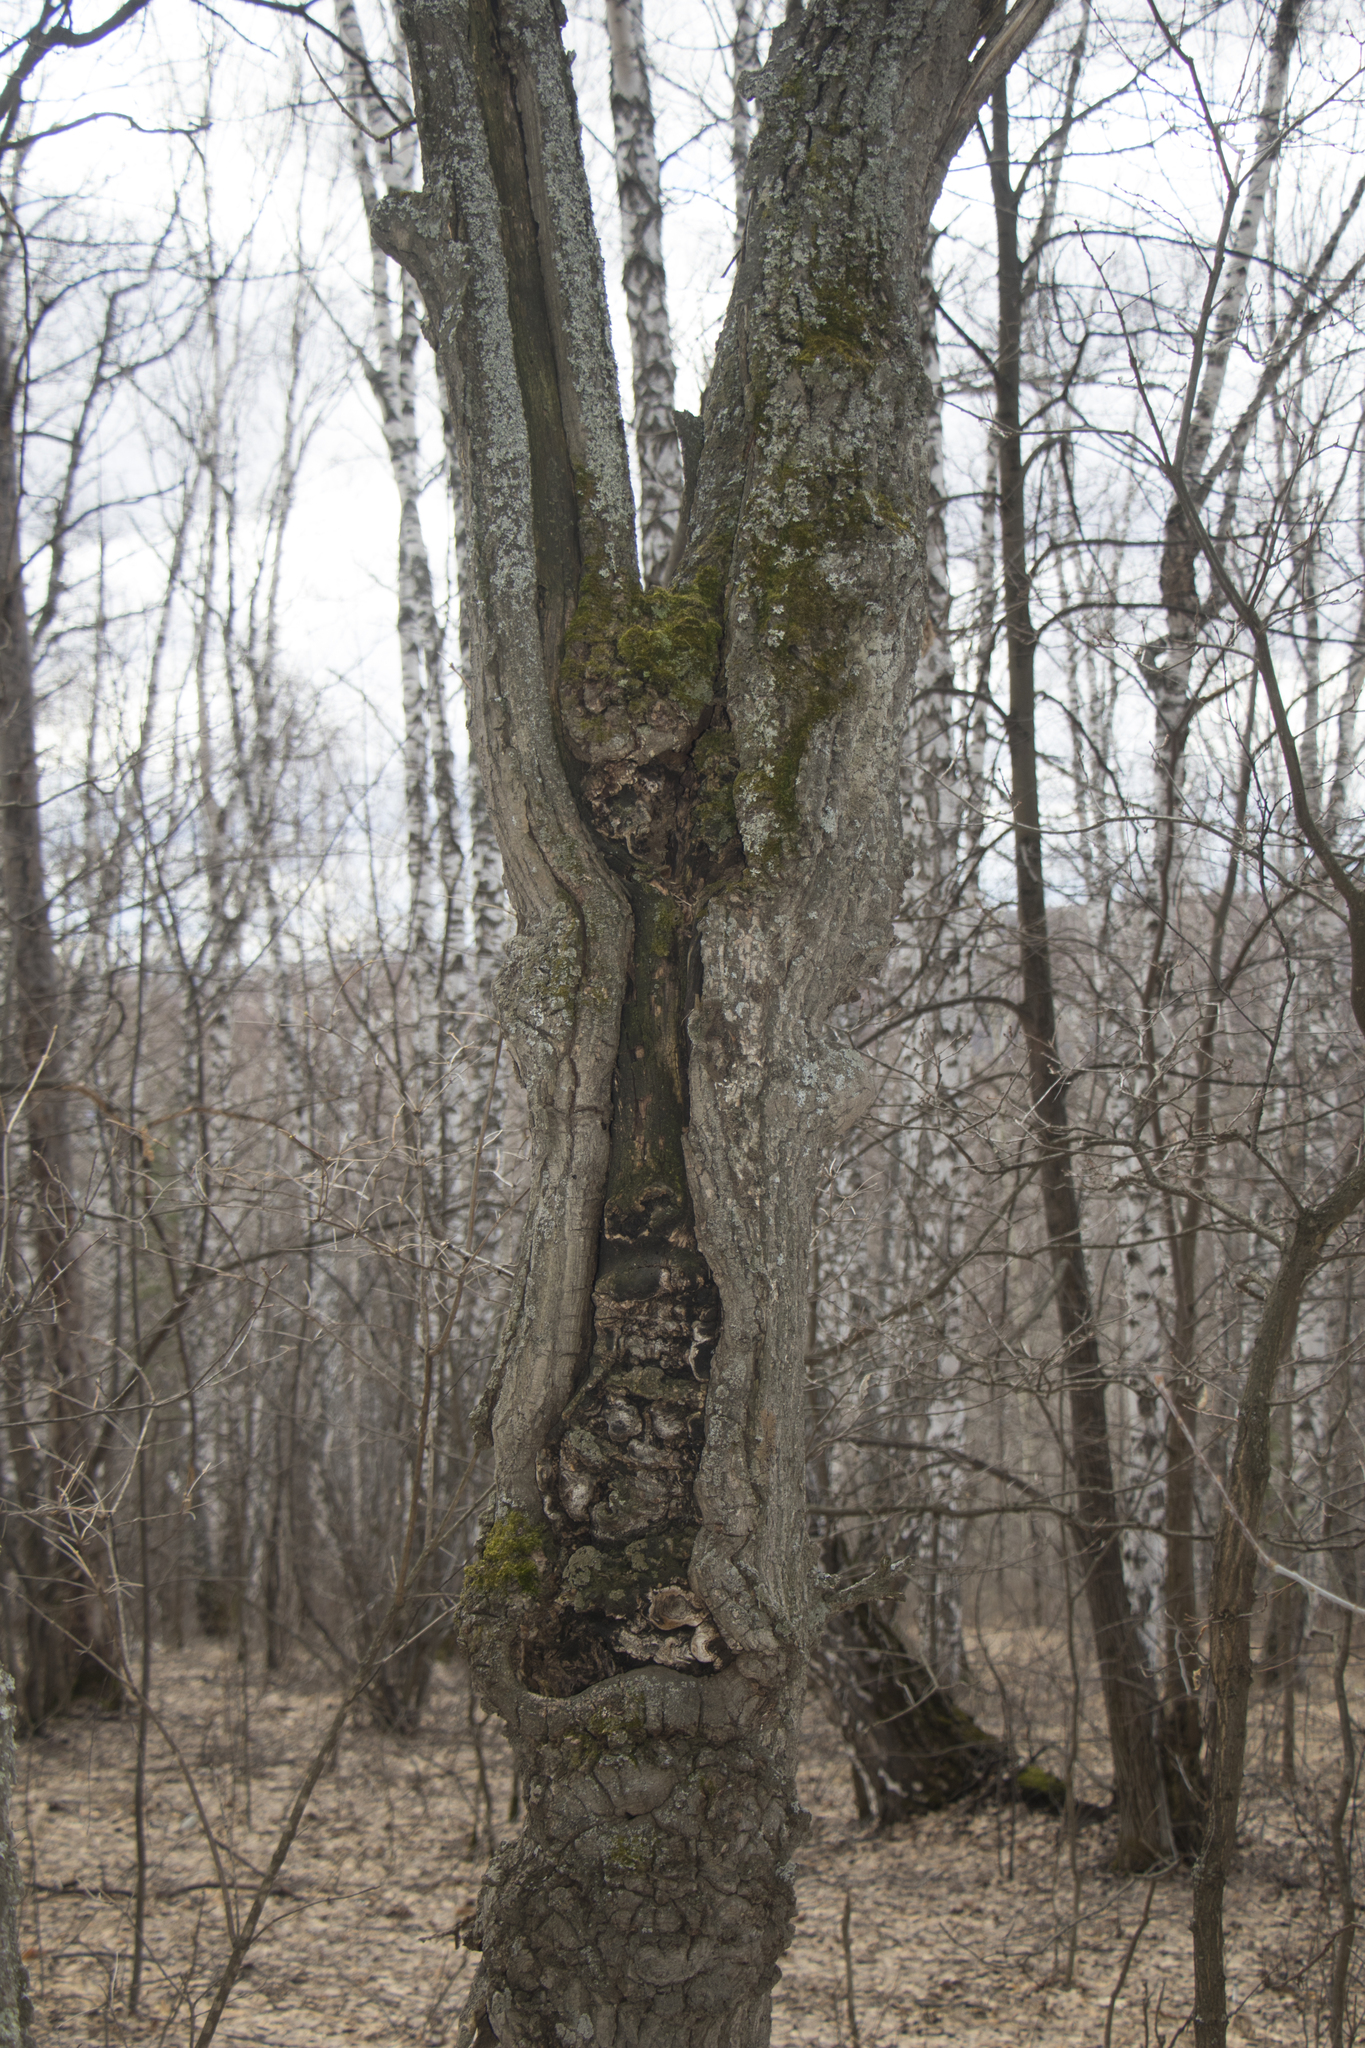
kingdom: Plantae
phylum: Tracheophyta
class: Magnoliopsida
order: Fagales
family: Fagaceae
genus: Quercus
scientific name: Quercus robur
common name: Pedunculate oak
